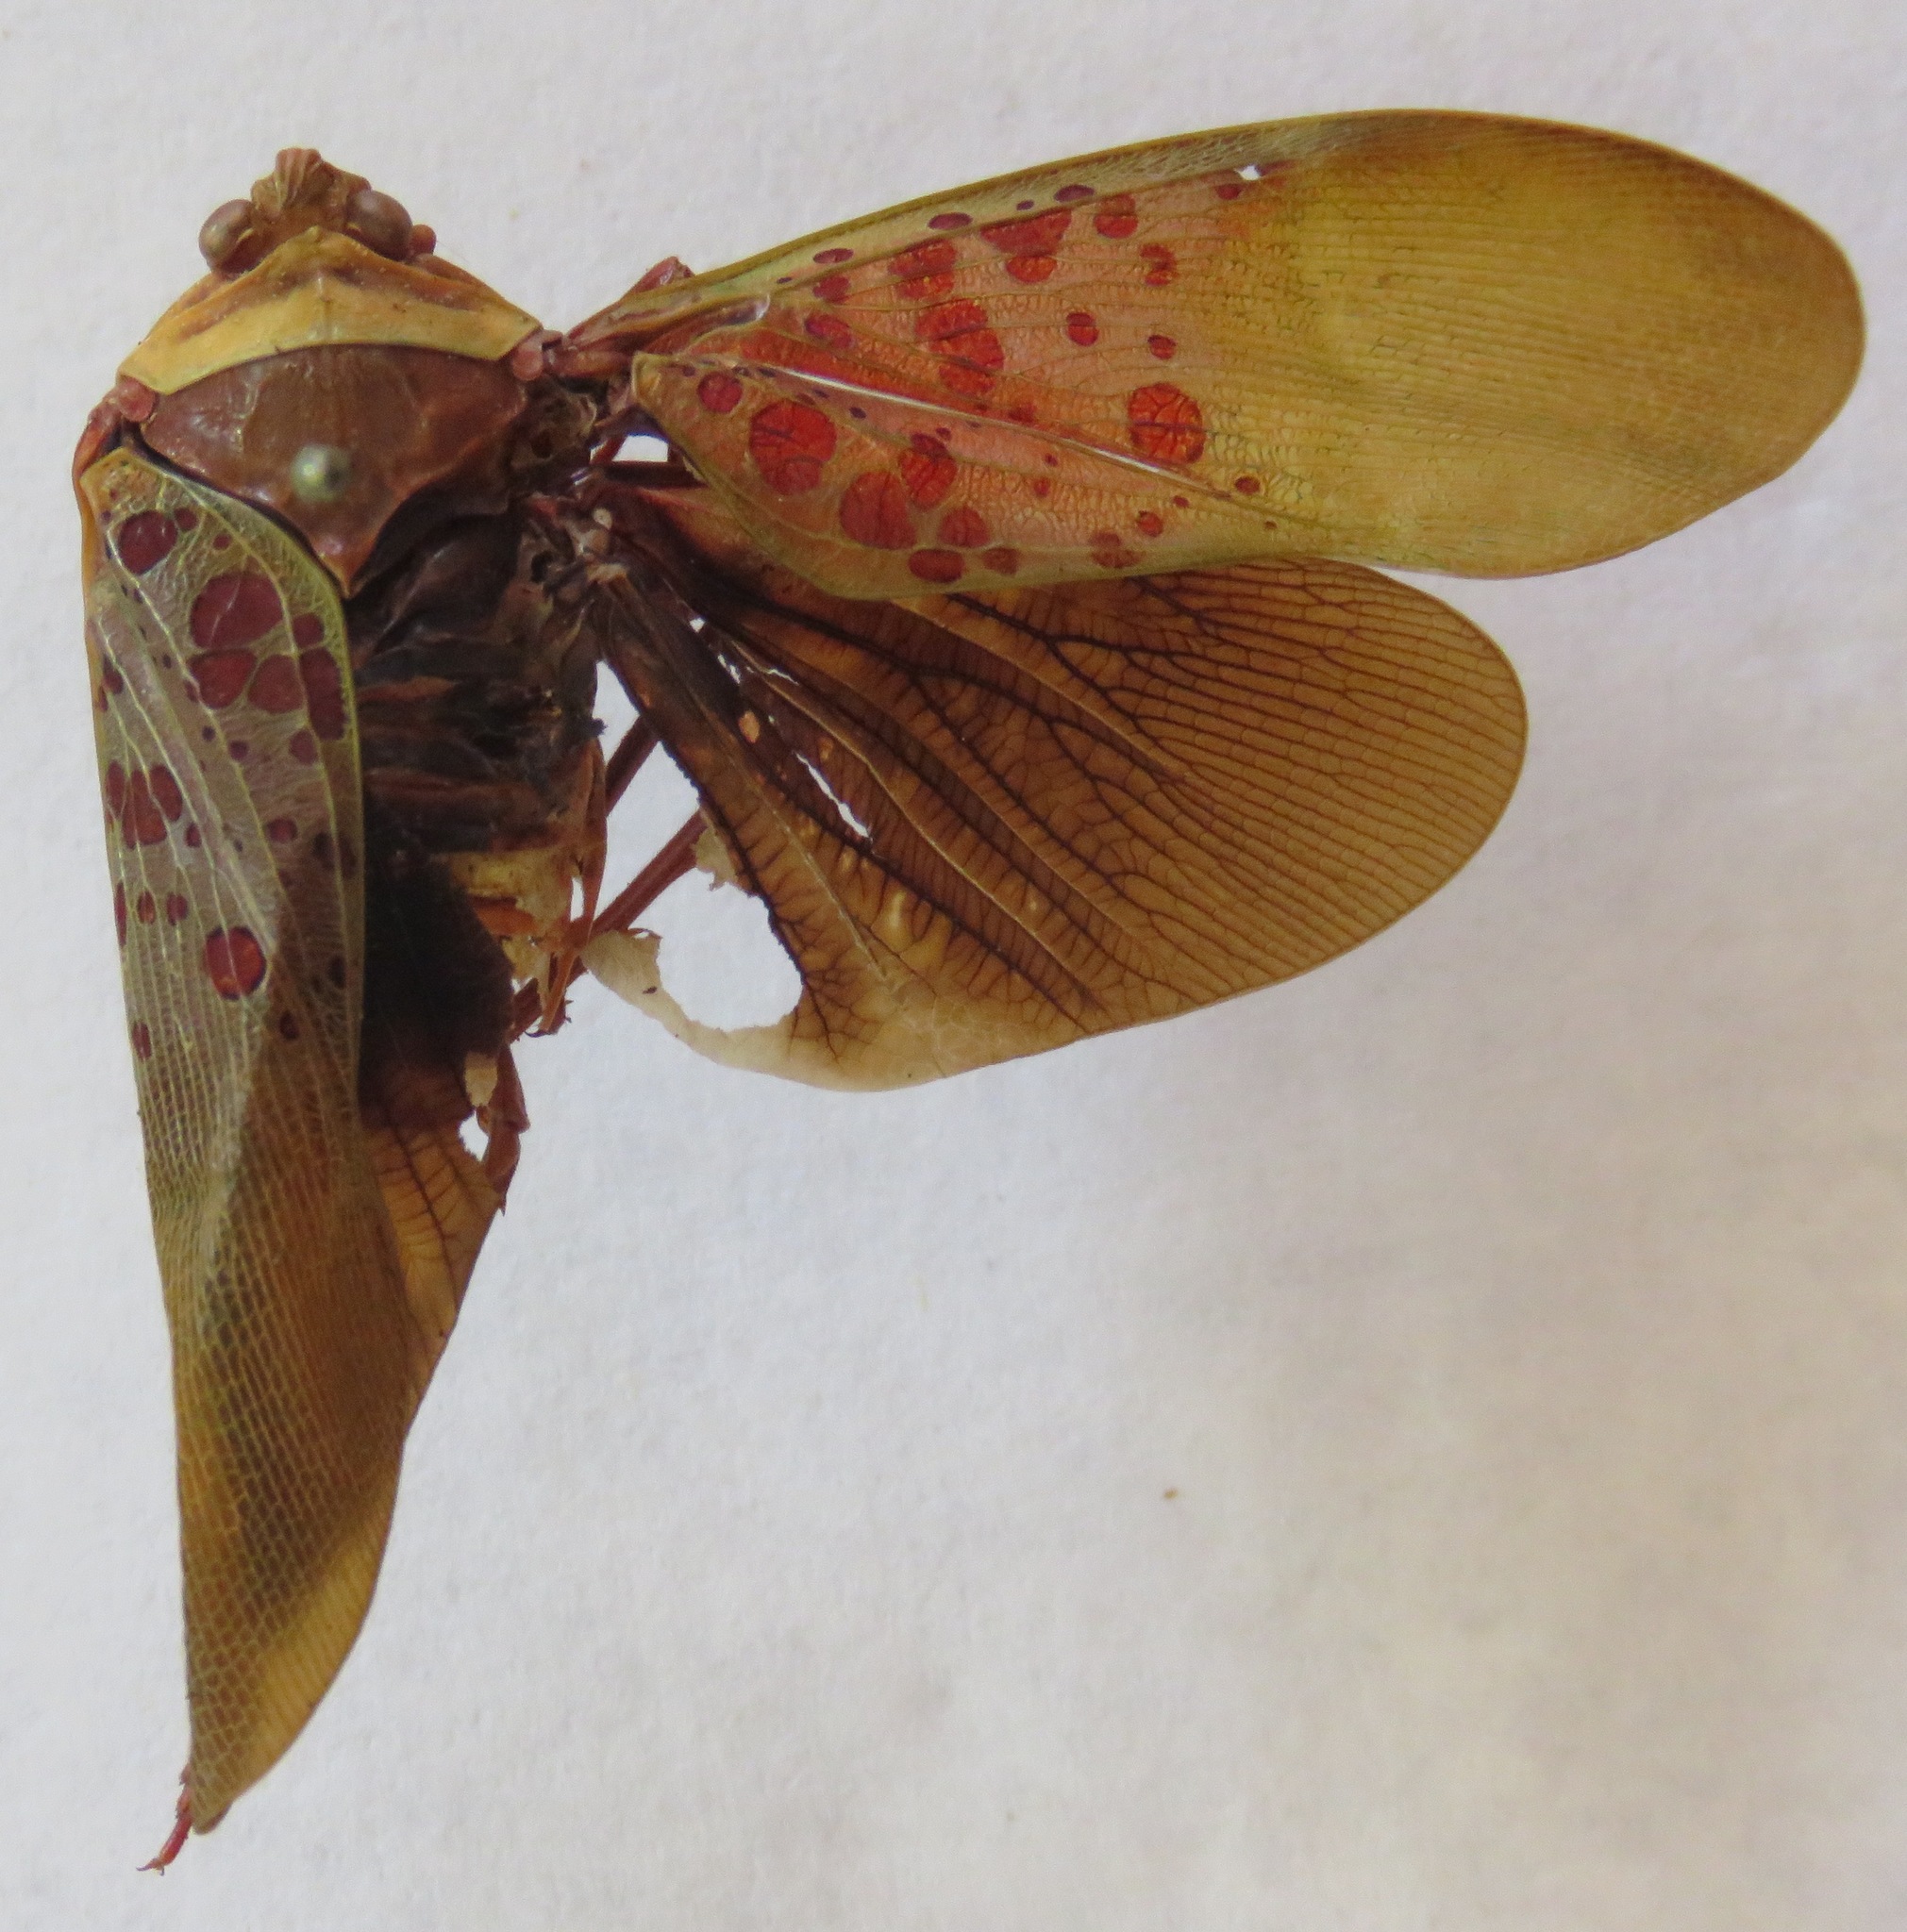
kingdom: Animalia
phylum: Arthropoda
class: Insecta
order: Hemiptera
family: Fulgoridae
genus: Copidocephala
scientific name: Copidocephala guttata
